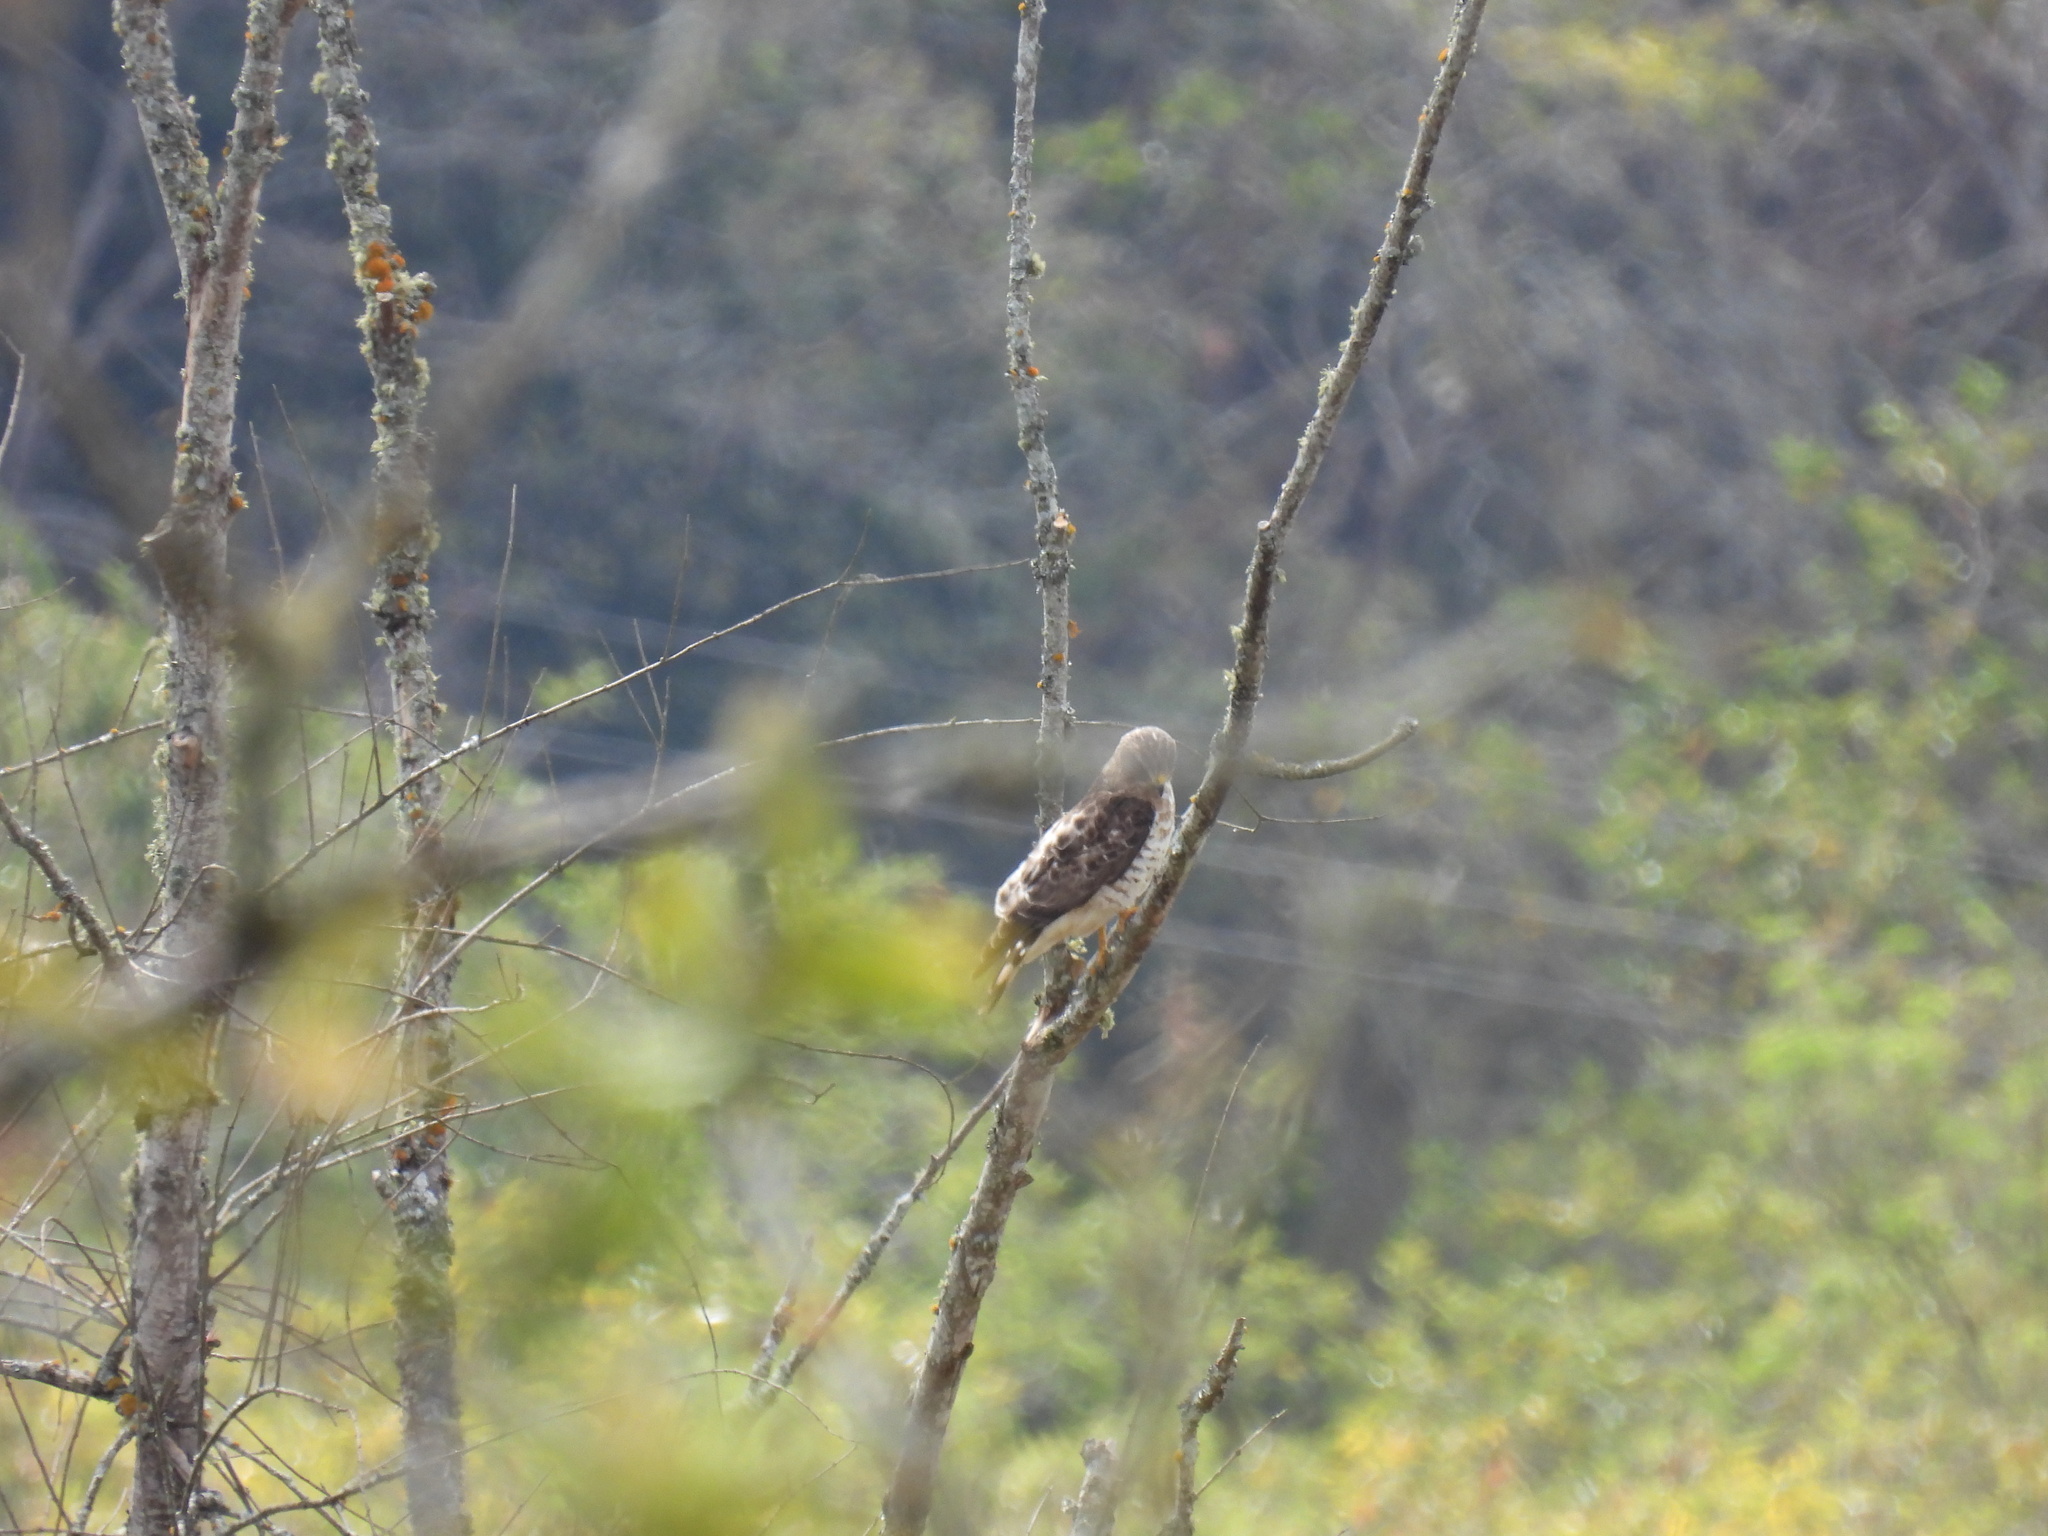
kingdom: Animalia
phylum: Chordata
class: Aves
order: Accipitriformes
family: Accipitridae
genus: Buteo
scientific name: Buteo platypterus
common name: Broad-winged hawk
